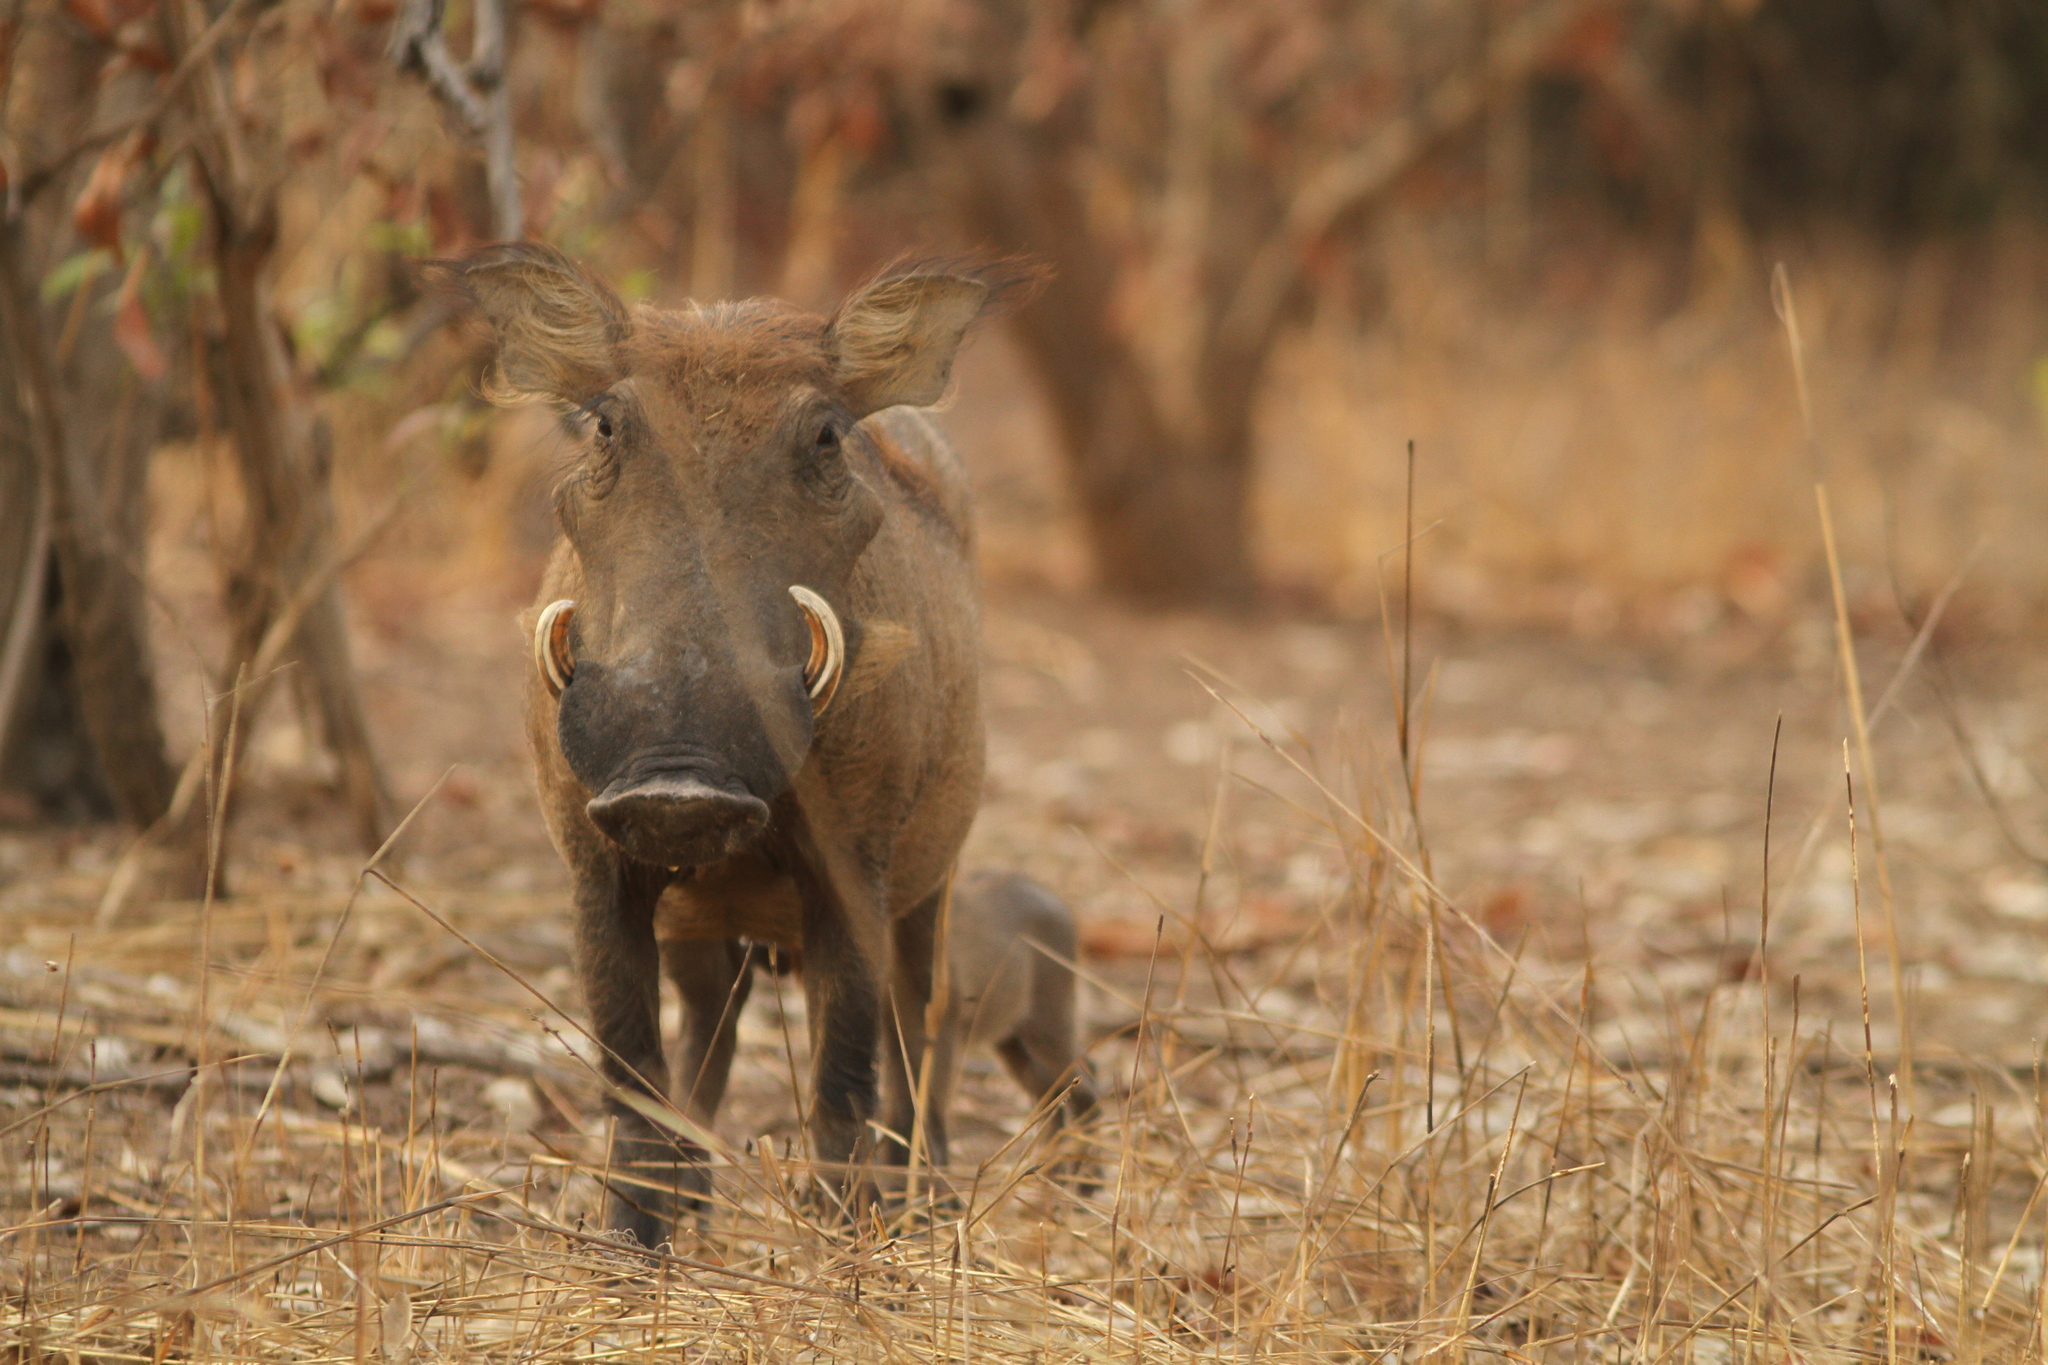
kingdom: Animalia
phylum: Chordata
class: Mammalia
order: Artiodactyla
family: Suidae
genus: Phacochoerus
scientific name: Phacochoerus africanus
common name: Common warthog
